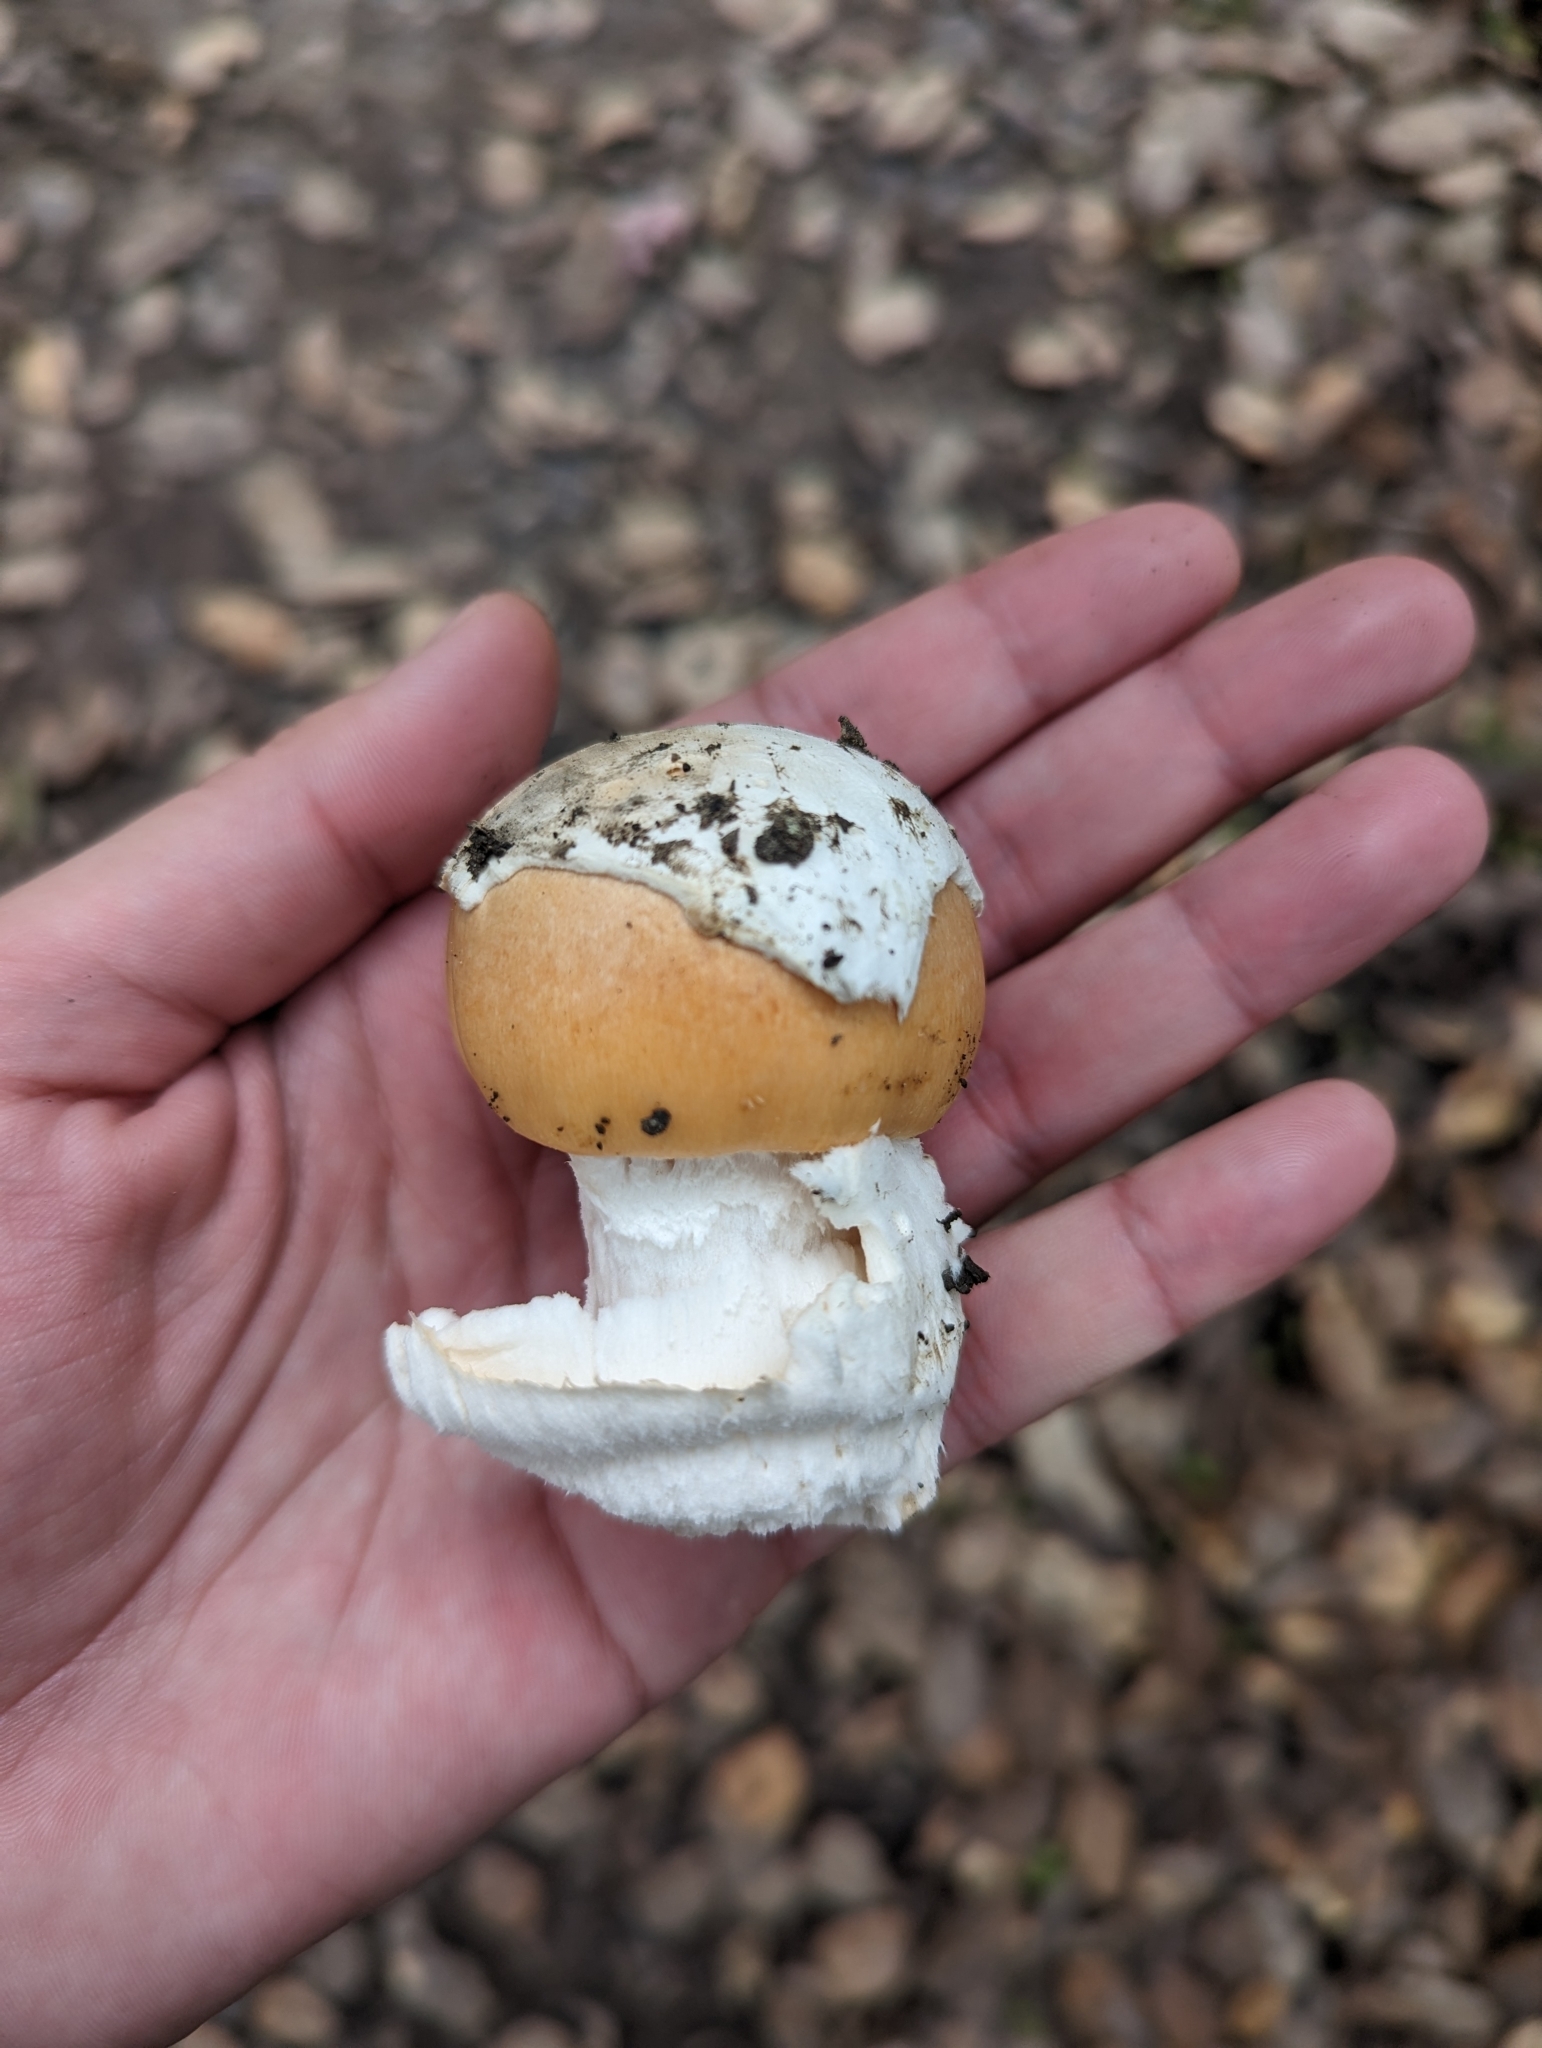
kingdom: Fungi
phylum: Basidiomycota
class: Agaricomycetes
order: Agaricales
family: Amanitaceae
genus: Amanita
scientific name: Amanita velosa
